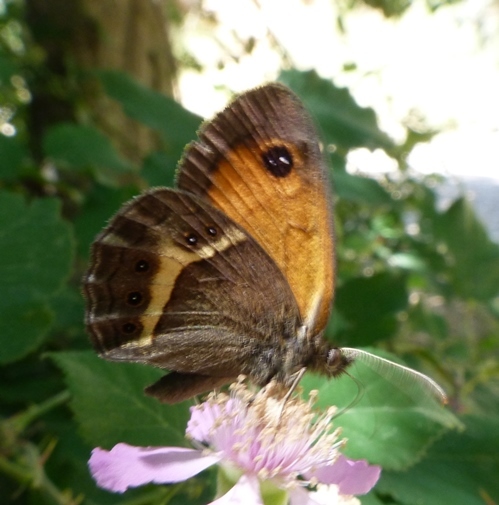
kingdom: Animalia
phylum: Arthropoda
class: Insecta
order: Lepidoptera
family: Nymphalidae
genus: Pyronia
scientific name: Pyronia bathseba
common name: Spanish gatekeeper
